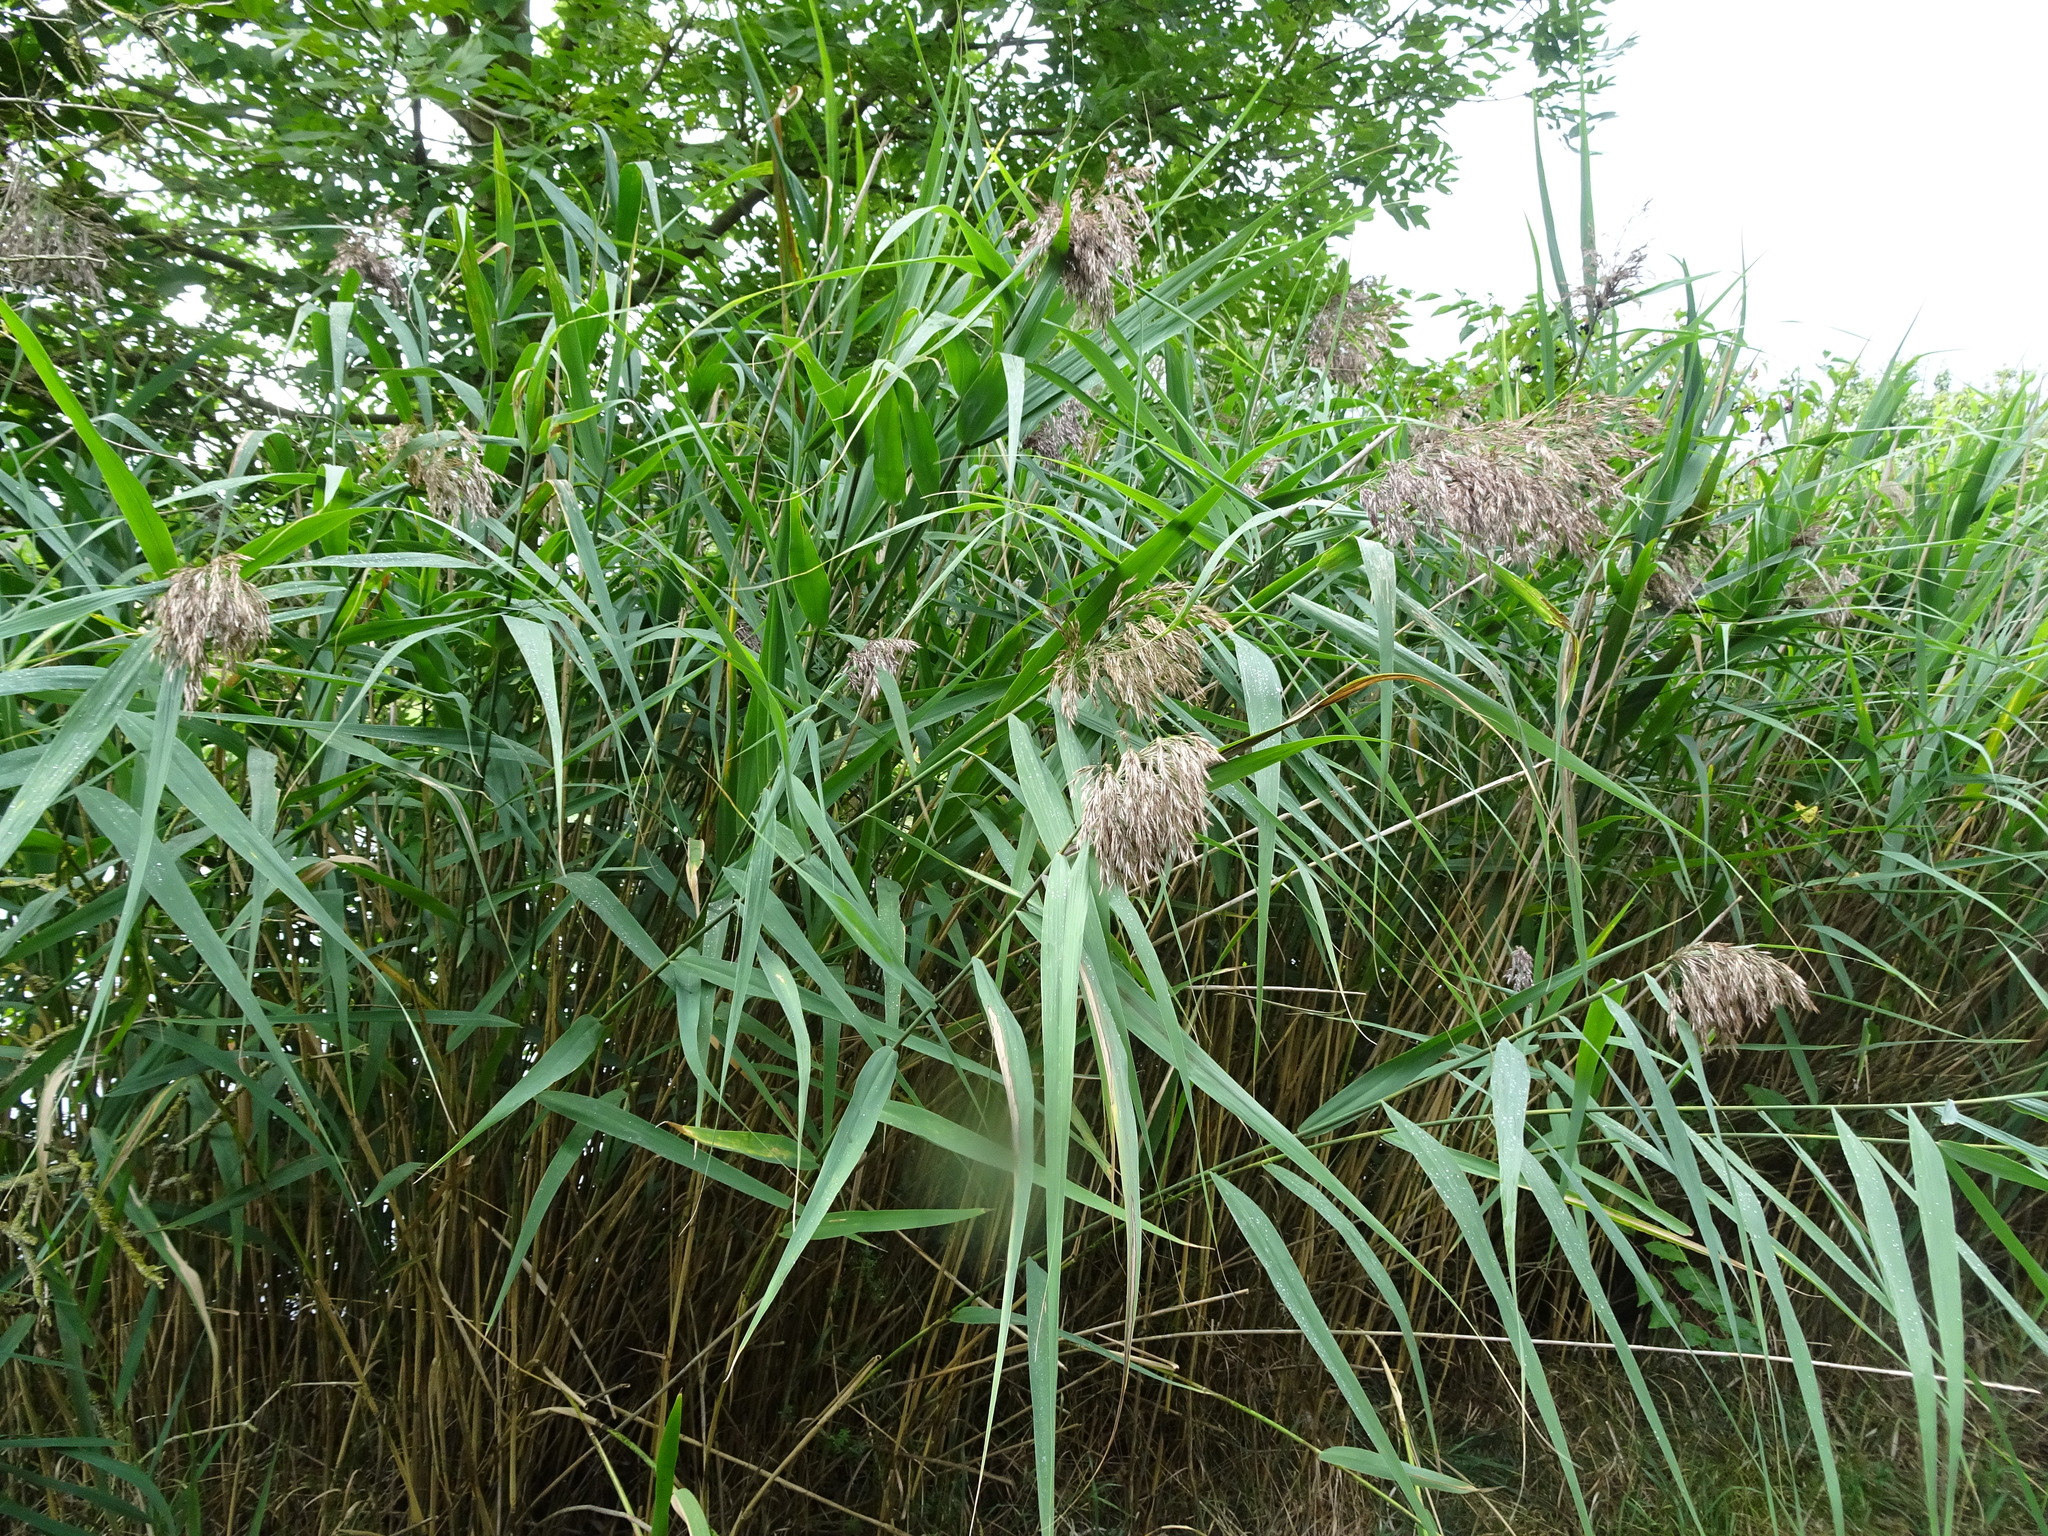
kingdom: Plantae
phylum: Tracheophyta
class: Liliopsida
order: Poales
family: Poaceae
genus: Phragmites
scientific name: Phragmites australis
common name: Common reed
